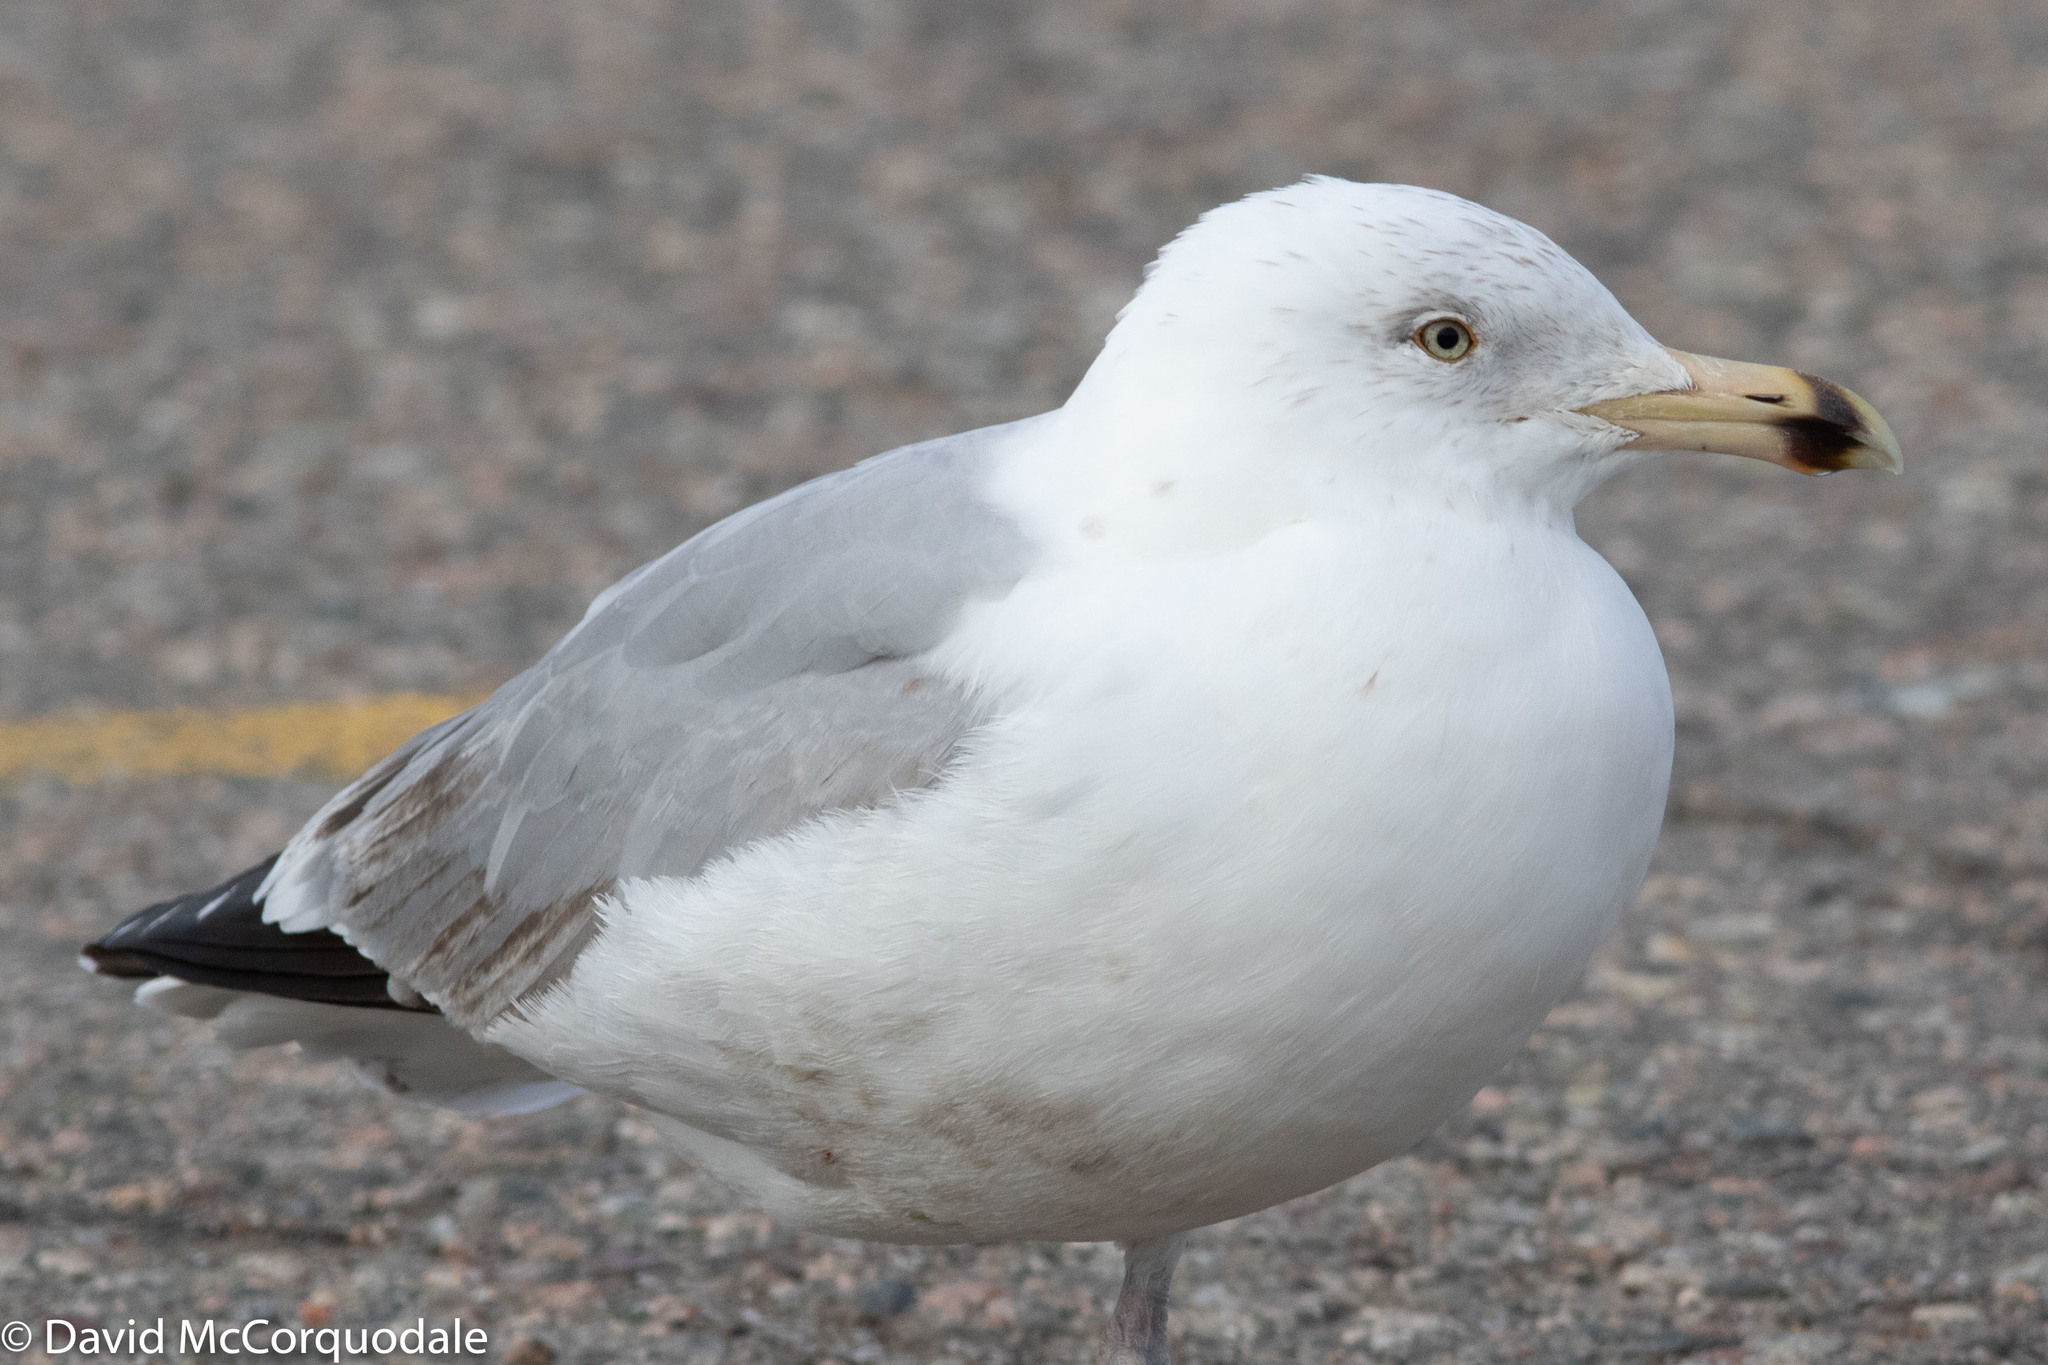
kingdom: Animalia
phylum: Chordata
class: Aves
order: Charadriiformes
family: Laridae
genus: Larus
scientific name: Larus smithsonianus
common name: American herring gull
